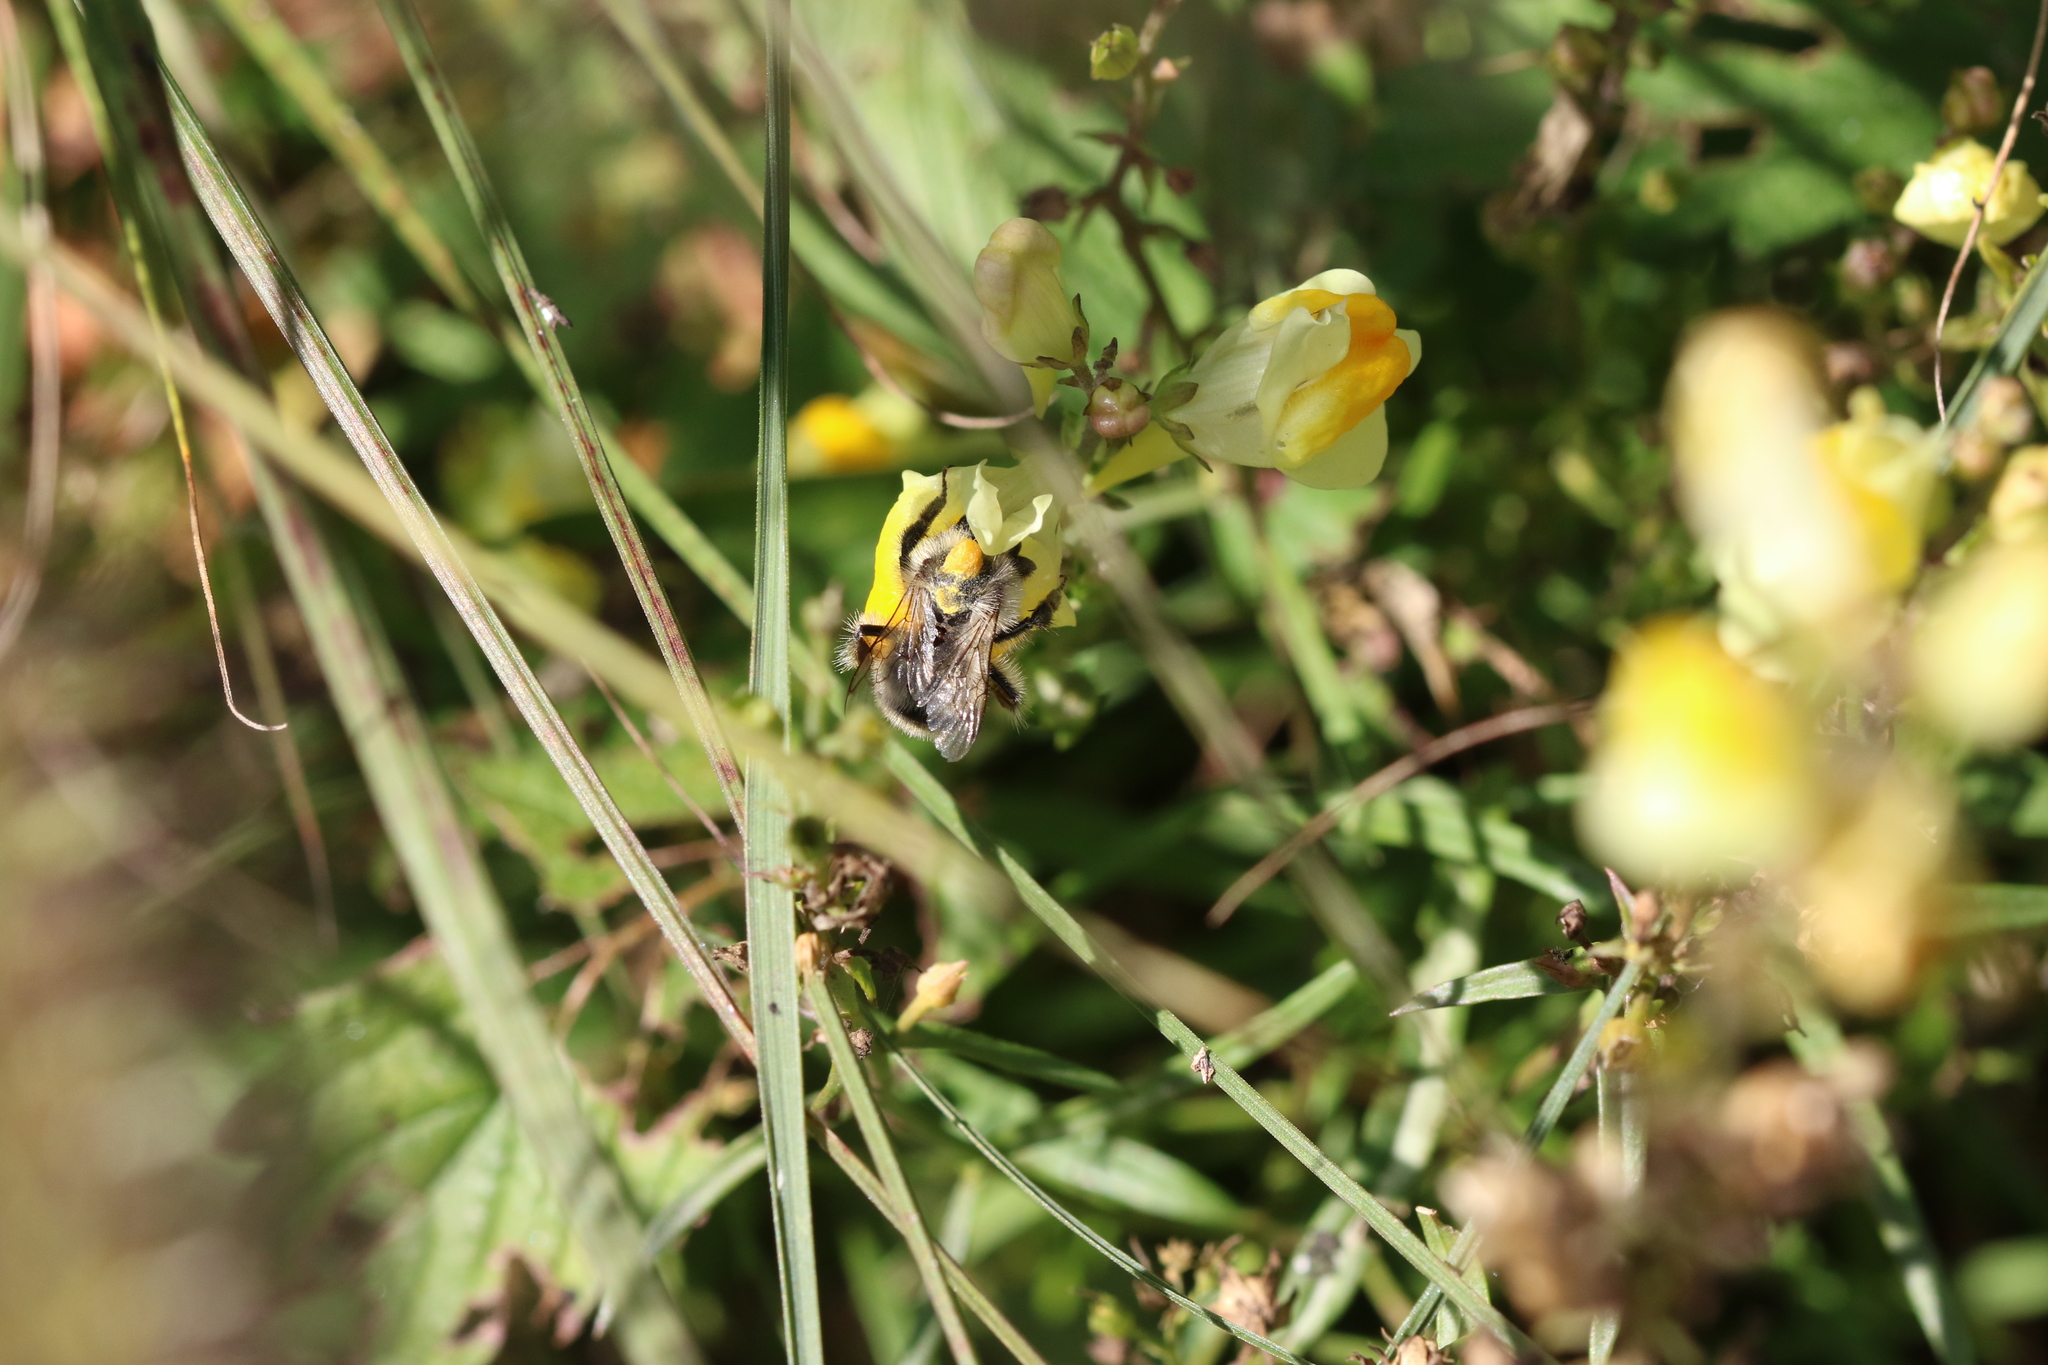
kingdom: Animalia
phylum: Arthropoda
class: Insecta
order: Hymenoptera
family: Apidae
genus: Bombus
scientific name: Bombus sylvarum
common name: Shrill carder bee
